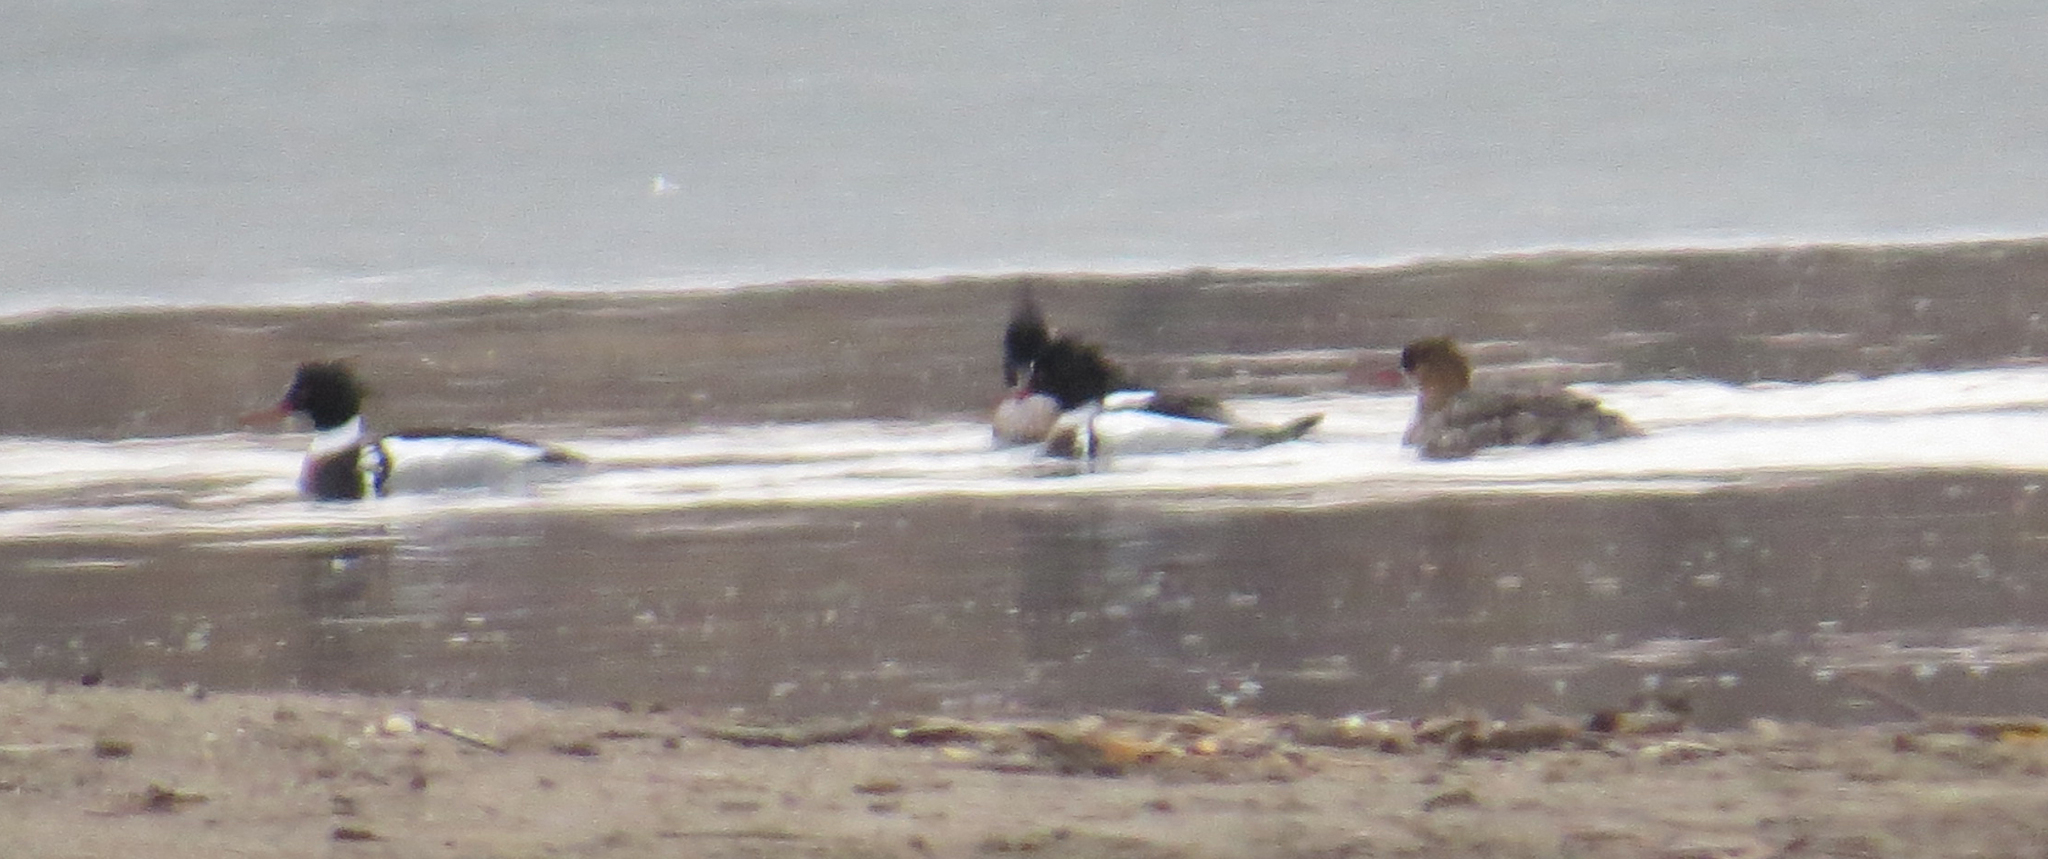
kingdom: Animalia
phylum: Chordata
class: Aves
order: Anseriformes
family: Anatidae
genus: Mergus
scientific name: Mergus serrator
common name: Red-breasted merganser
